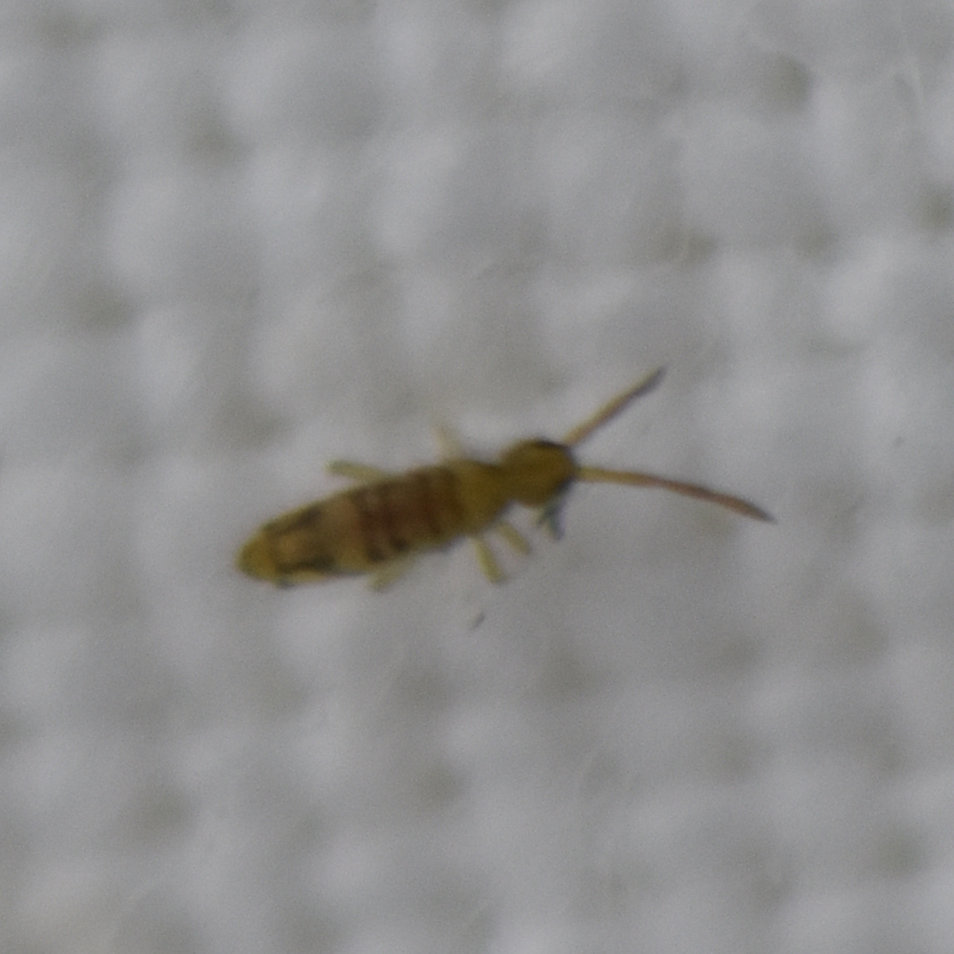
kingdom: Animalia
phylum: Arthropoda
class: Collembola
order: Entomobryomorpha
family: Entomobryidae
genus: Entomobrya
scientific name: Entomobrya nivalis
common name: Cosmopolitan springtail
